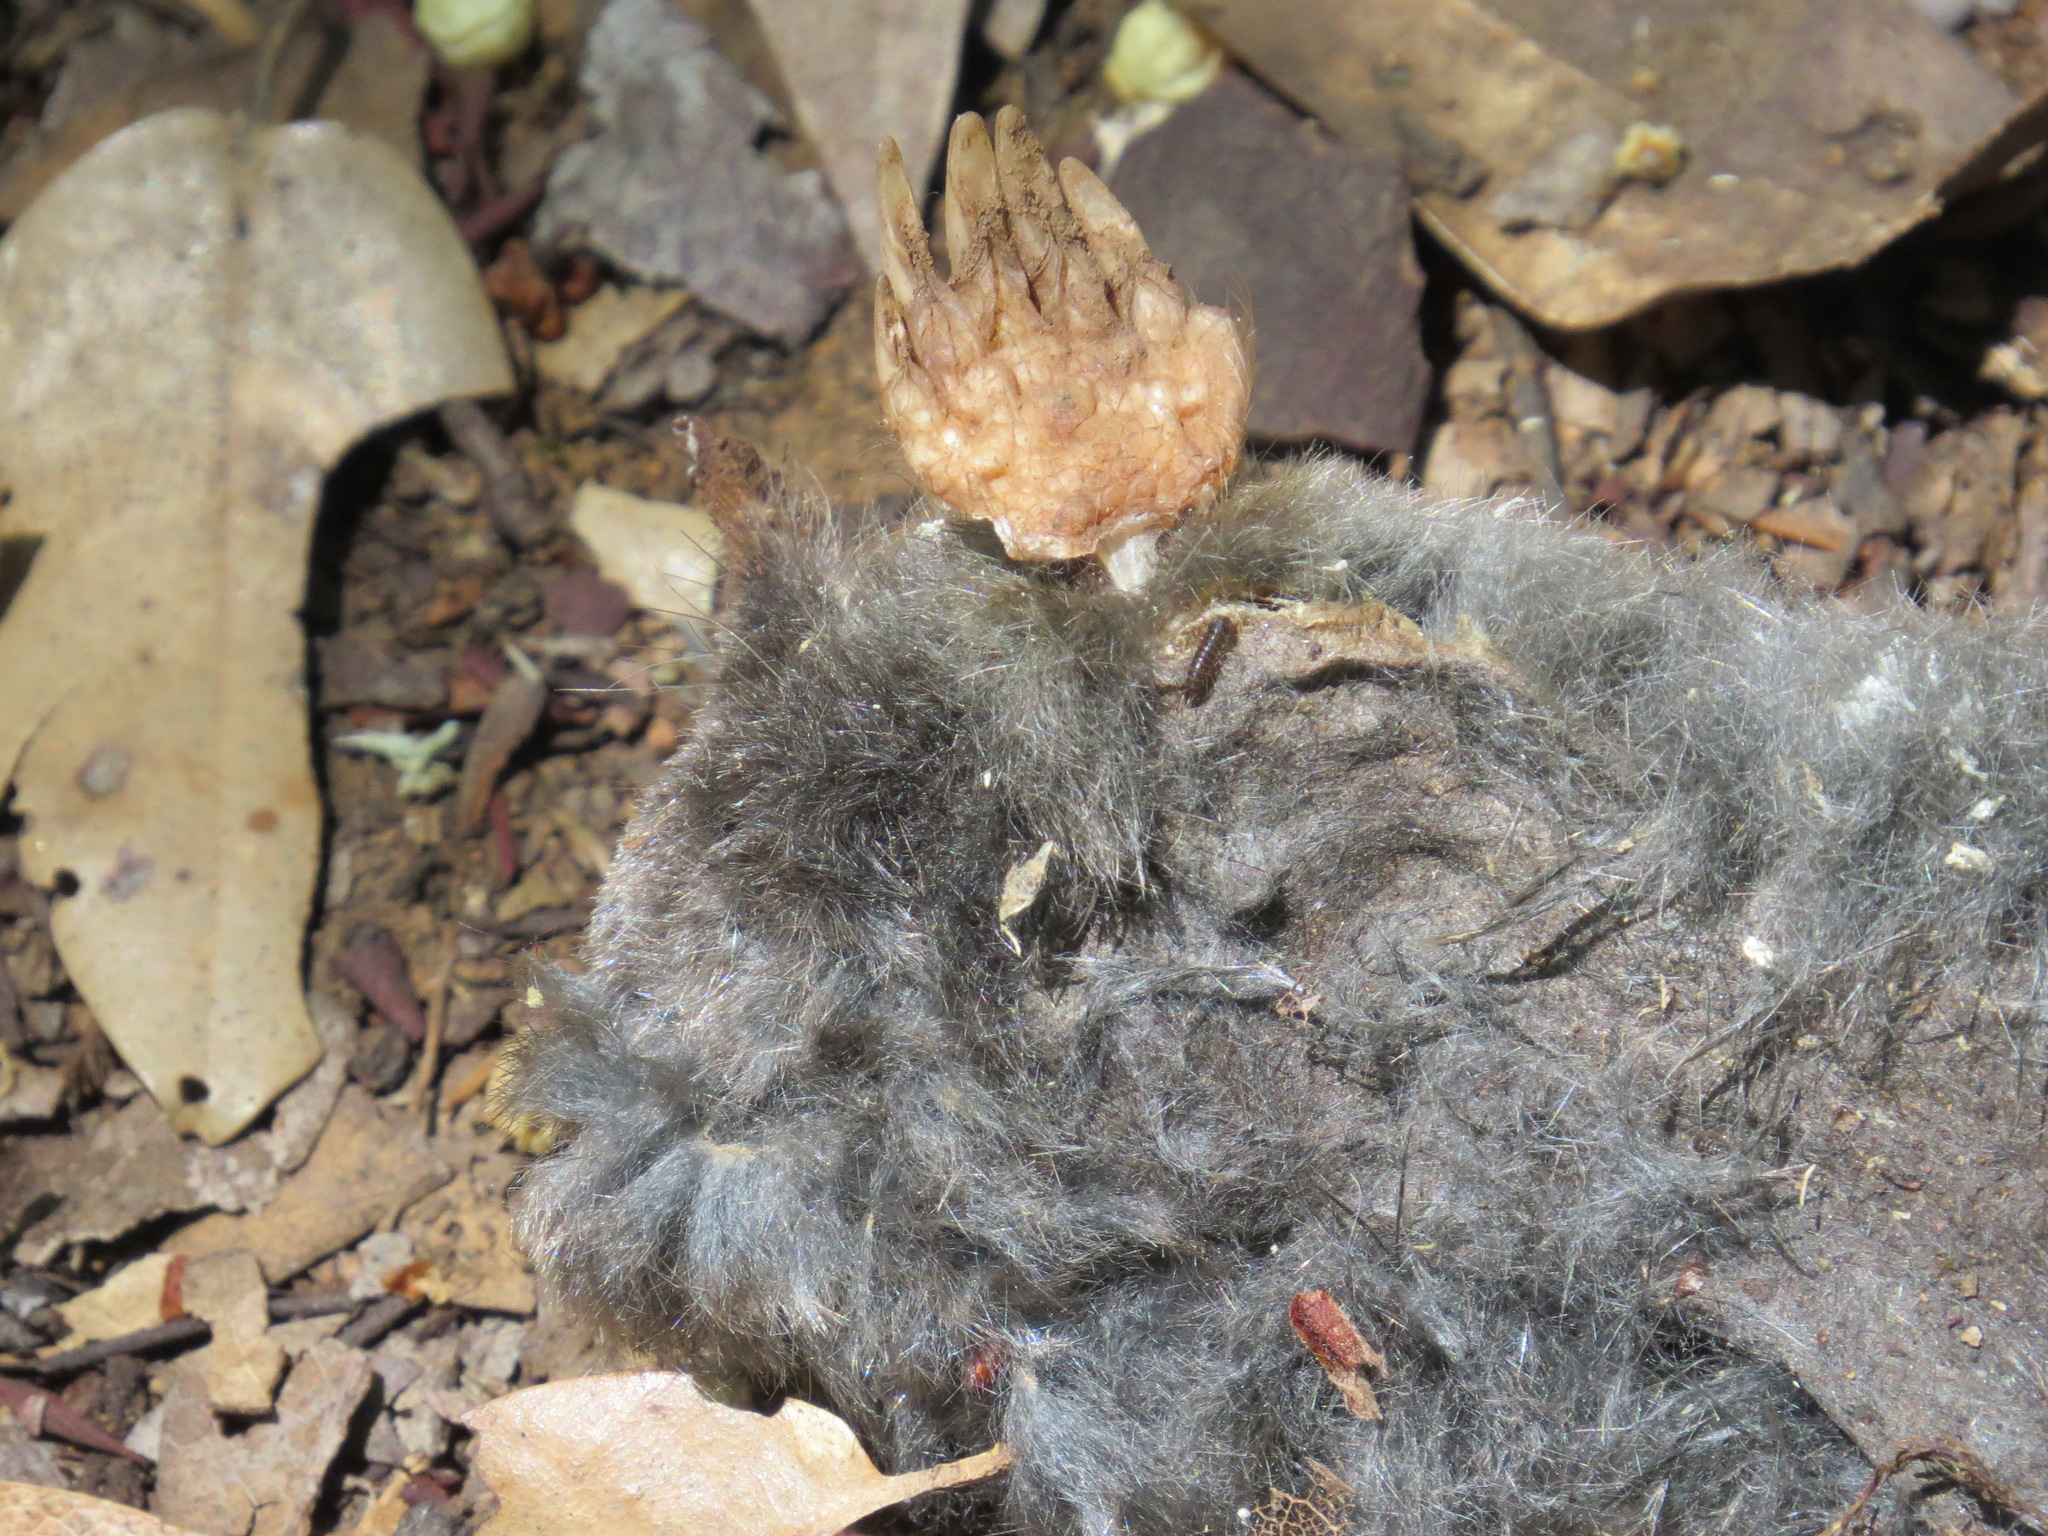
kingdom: Animalia
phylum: Chordata
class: Mammalia
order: Soricomorpha
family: Talpidae
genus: Scapanus
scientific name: Scapanus latimanus
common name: Broad-footed mole
